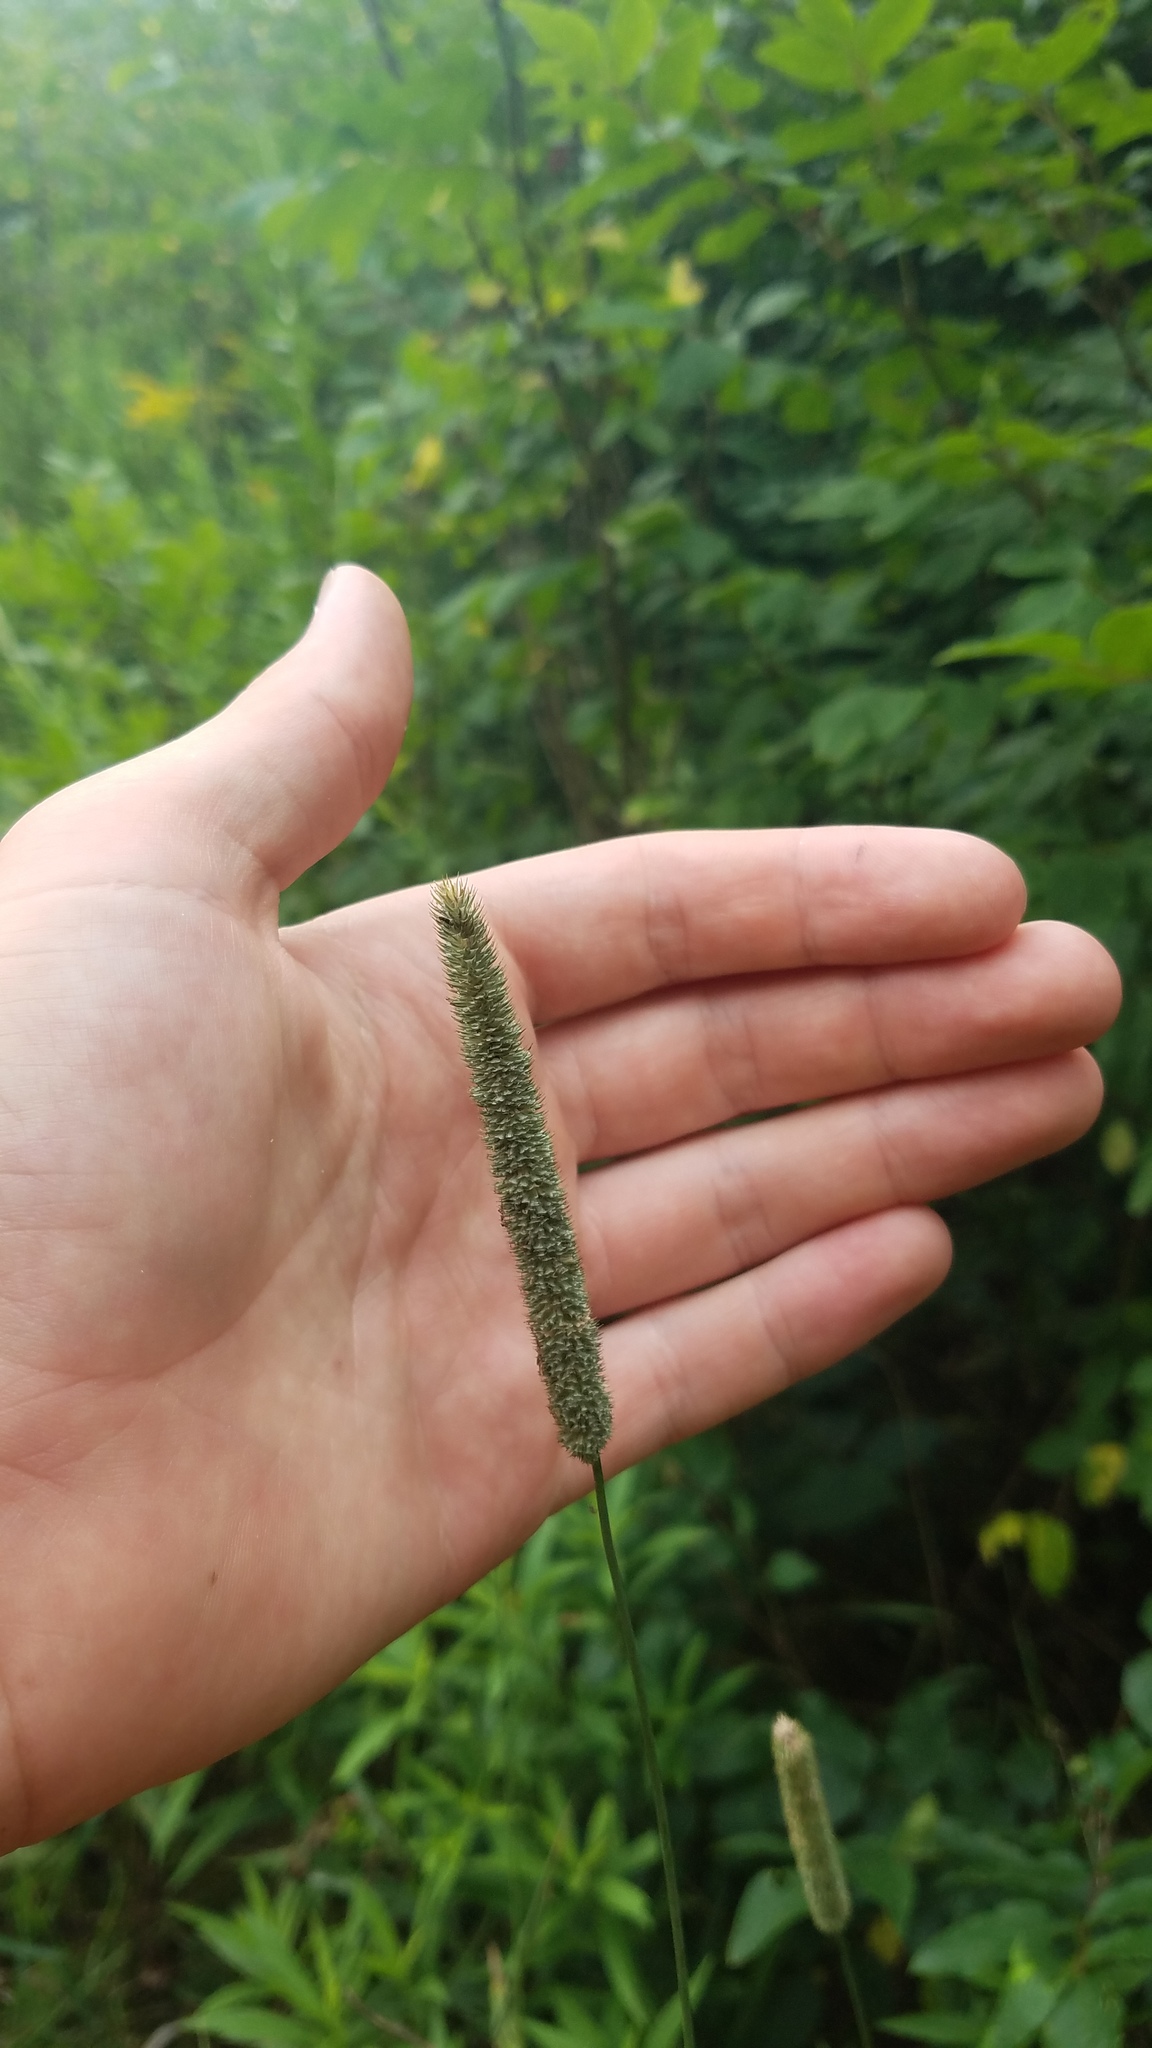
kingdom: Plantae
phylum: Tracheophyta
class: Liliopsida
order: Poales
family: Poaceae
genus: Phleum
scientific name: Phleum pratense
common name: Timothy grass
